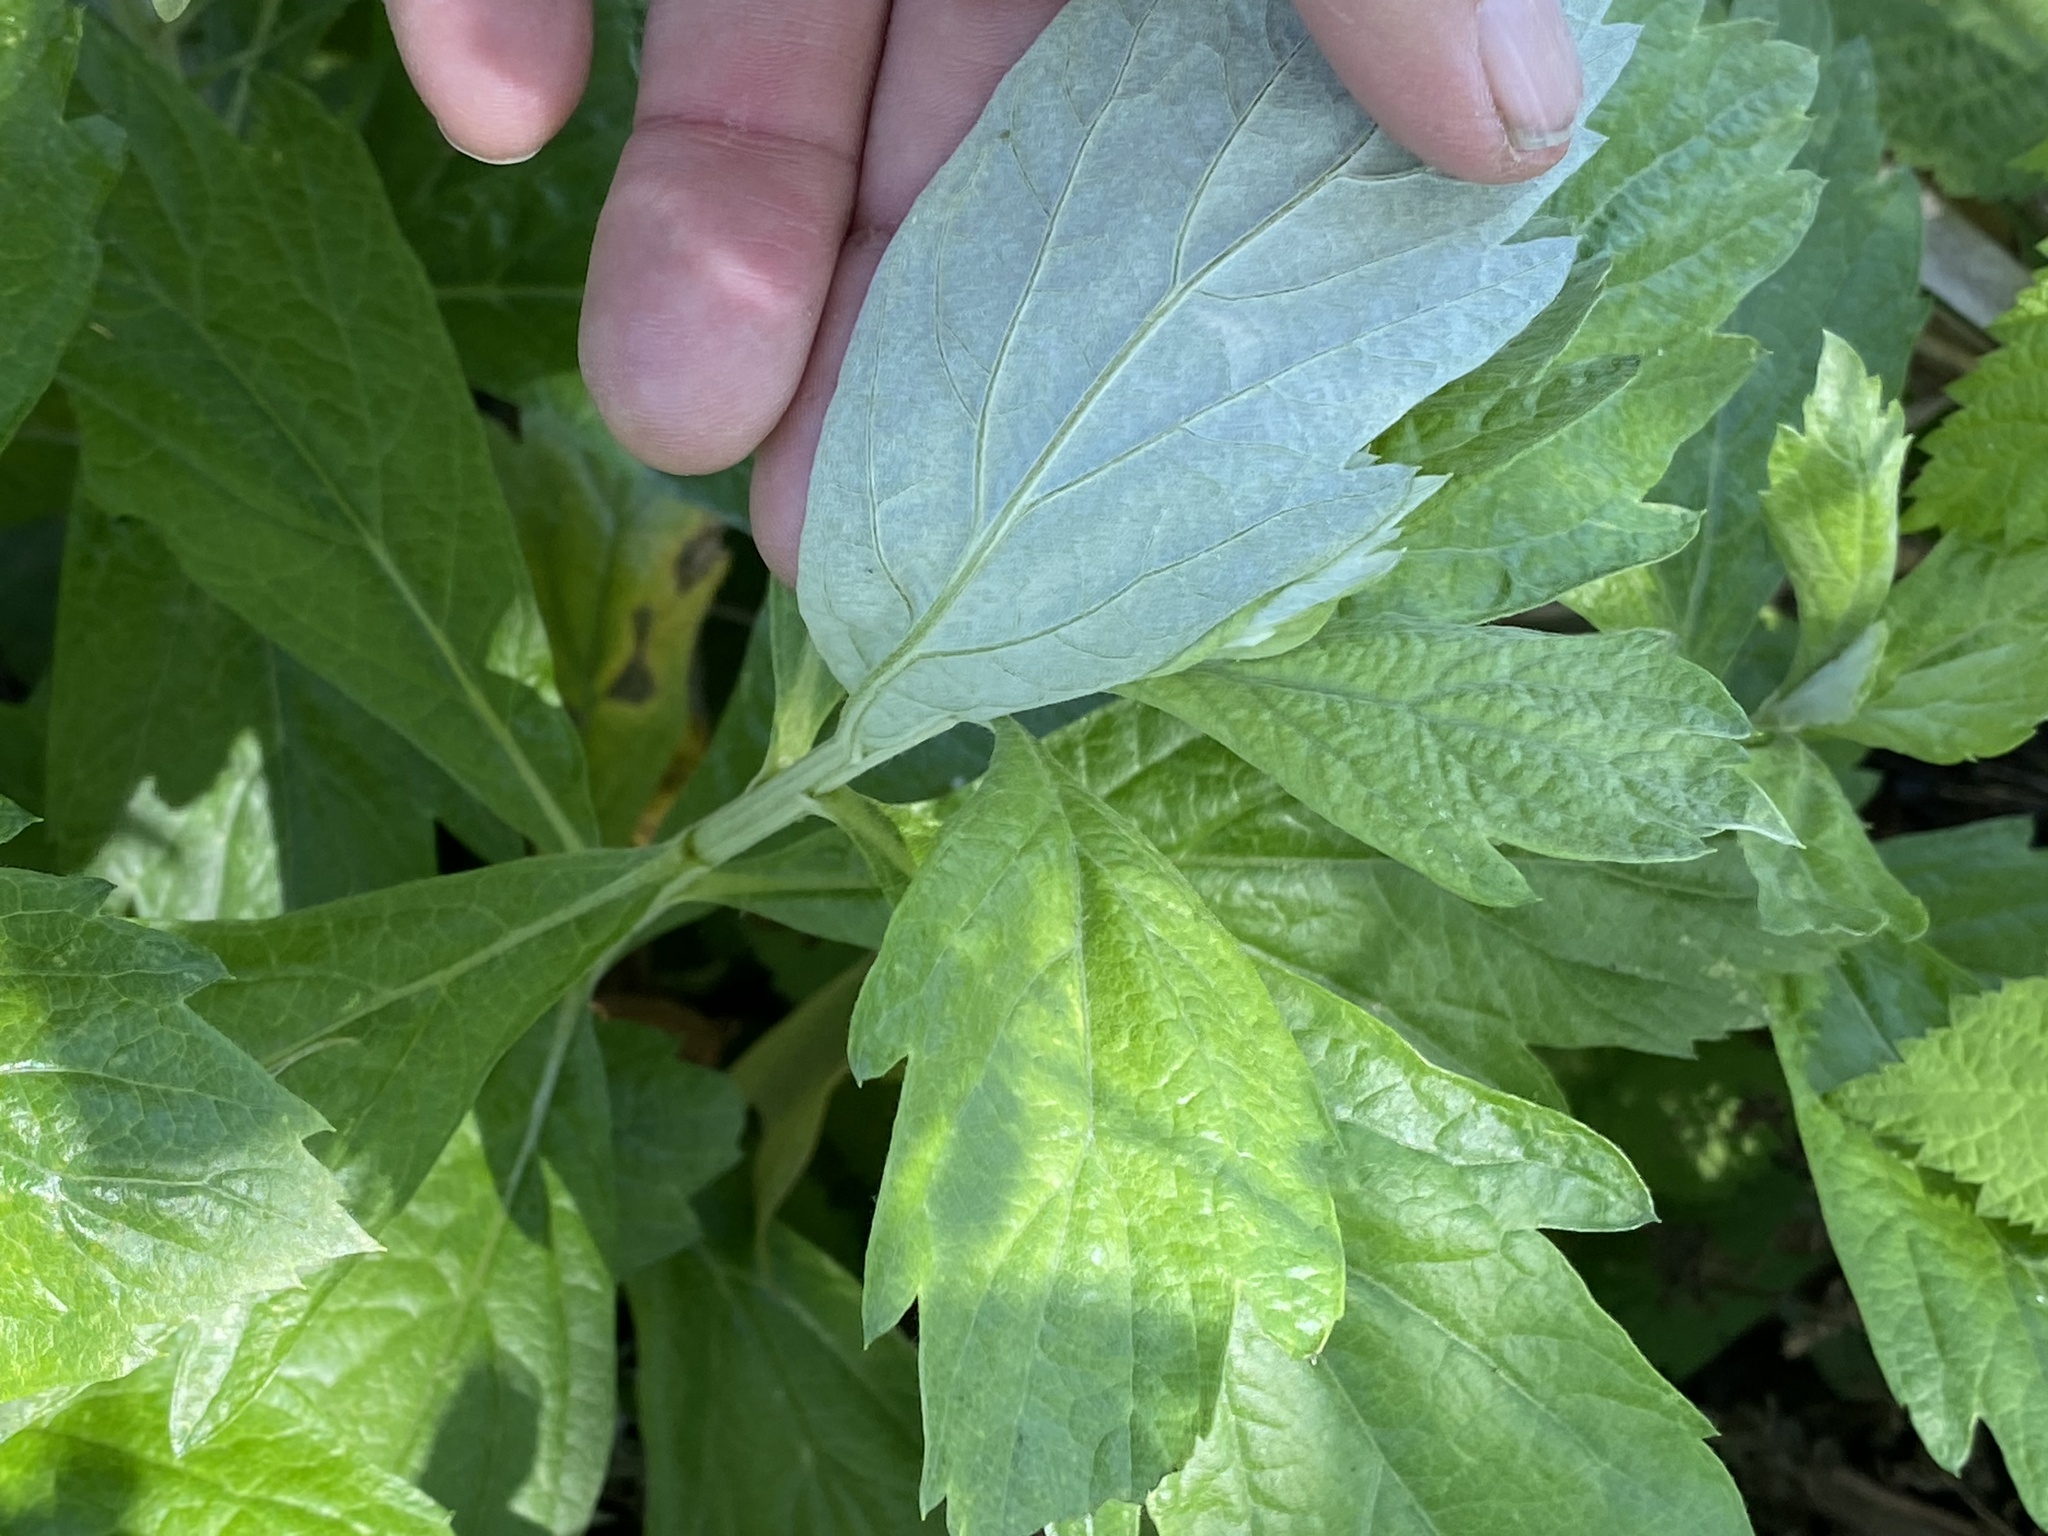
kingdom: Plantae
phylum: Tracheophyta
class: Magnoliopsida
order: Asterales
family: Asteraceae
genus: Artemisia
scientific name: Artemisia douglasiana
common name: Northwest mugwort
